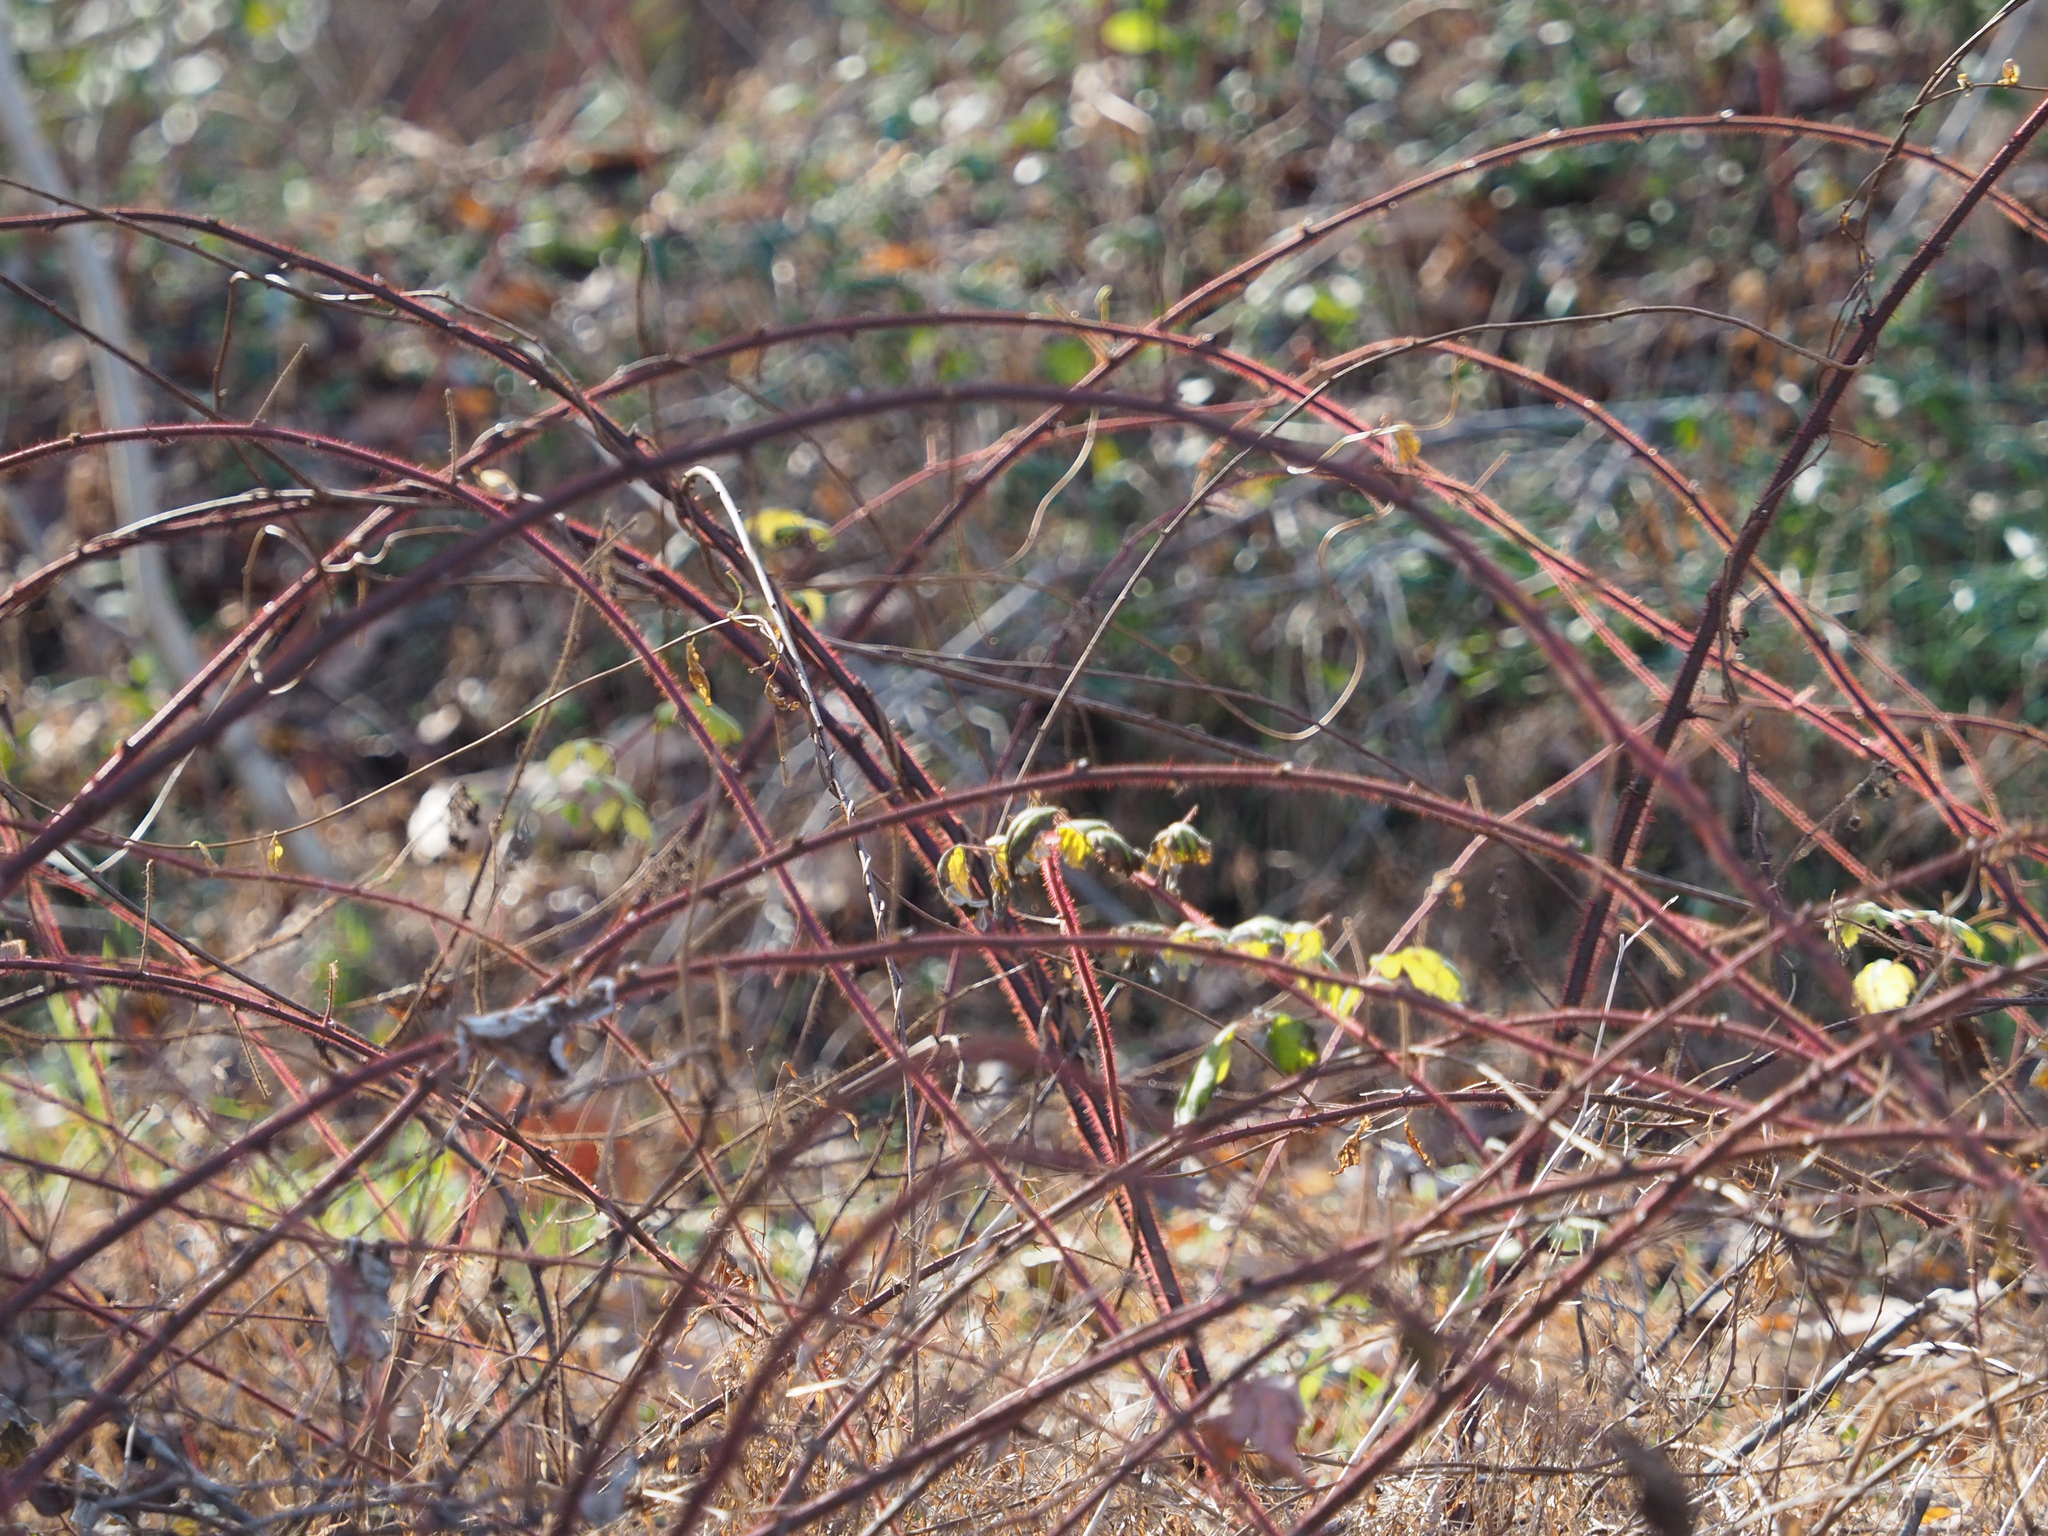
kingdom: Plantae
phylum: Tracheophyta
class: Magnoliopsida
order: Rosales
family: Rosaceae
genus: Rubus
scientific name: Rubus phoenicolasius
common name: Japanese wineberry
